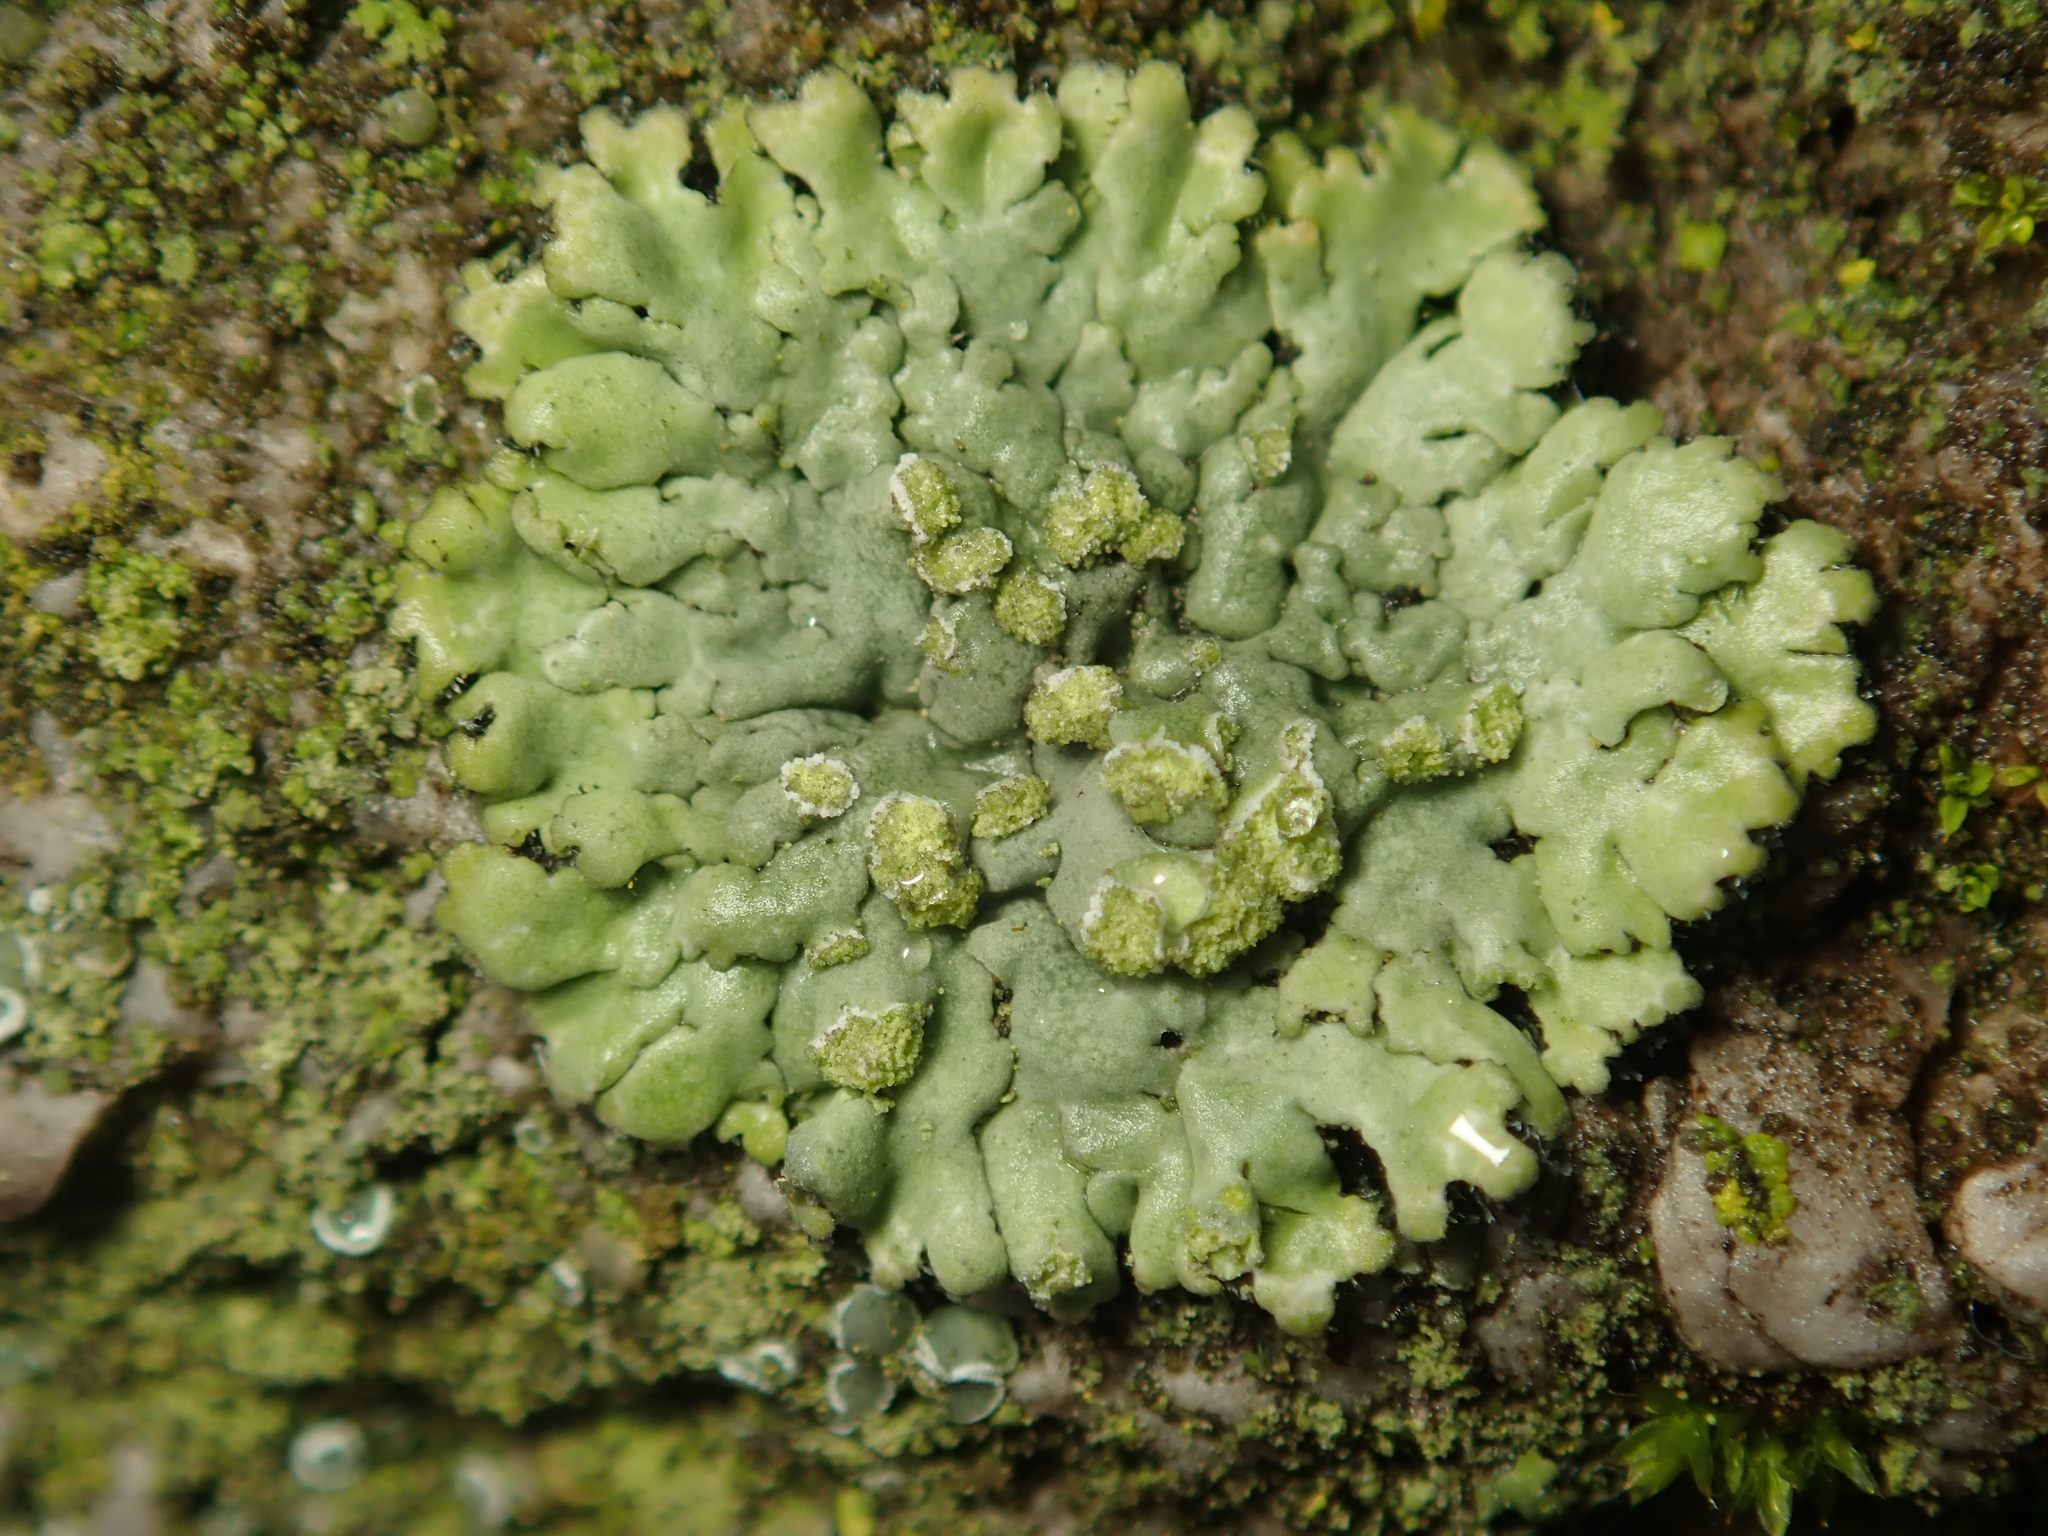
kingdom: Fungi
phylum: Ascomycota
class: Lecanoromycetes
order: Caliciales
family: Physciaceae
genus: Phaeophyscia
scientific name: Phaeophyscia orbicularis
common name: Mealy shadow lichen
